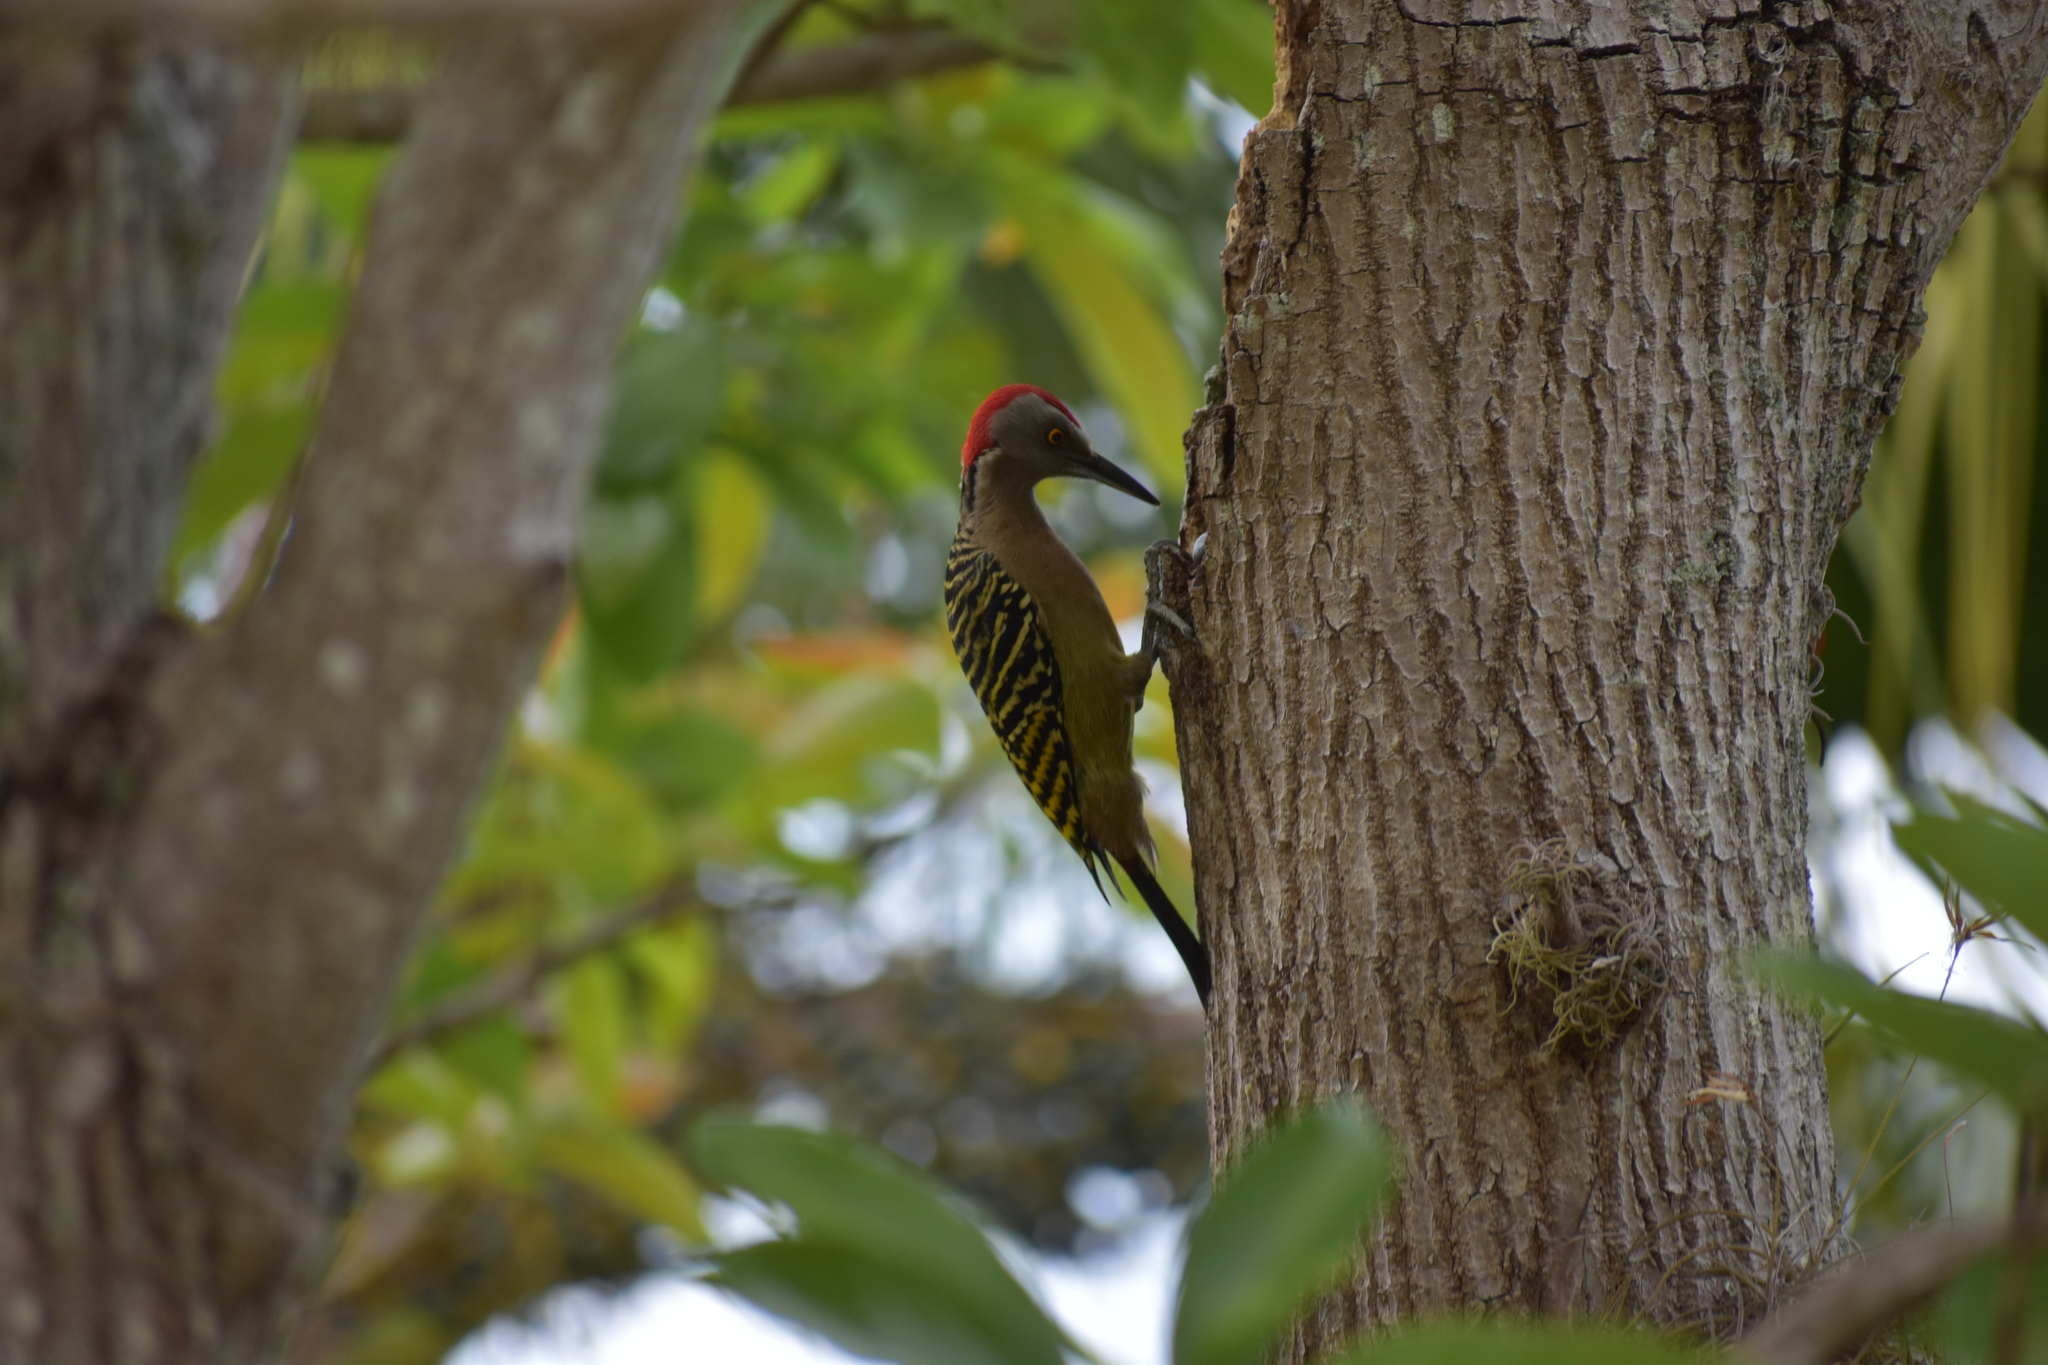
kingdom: Animalia
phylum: Chordata
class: Aves
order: Piciformes
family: Picidae
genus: Melanerpes
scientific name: Melanerpes striatus
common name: Hispaniolan woodpecker
